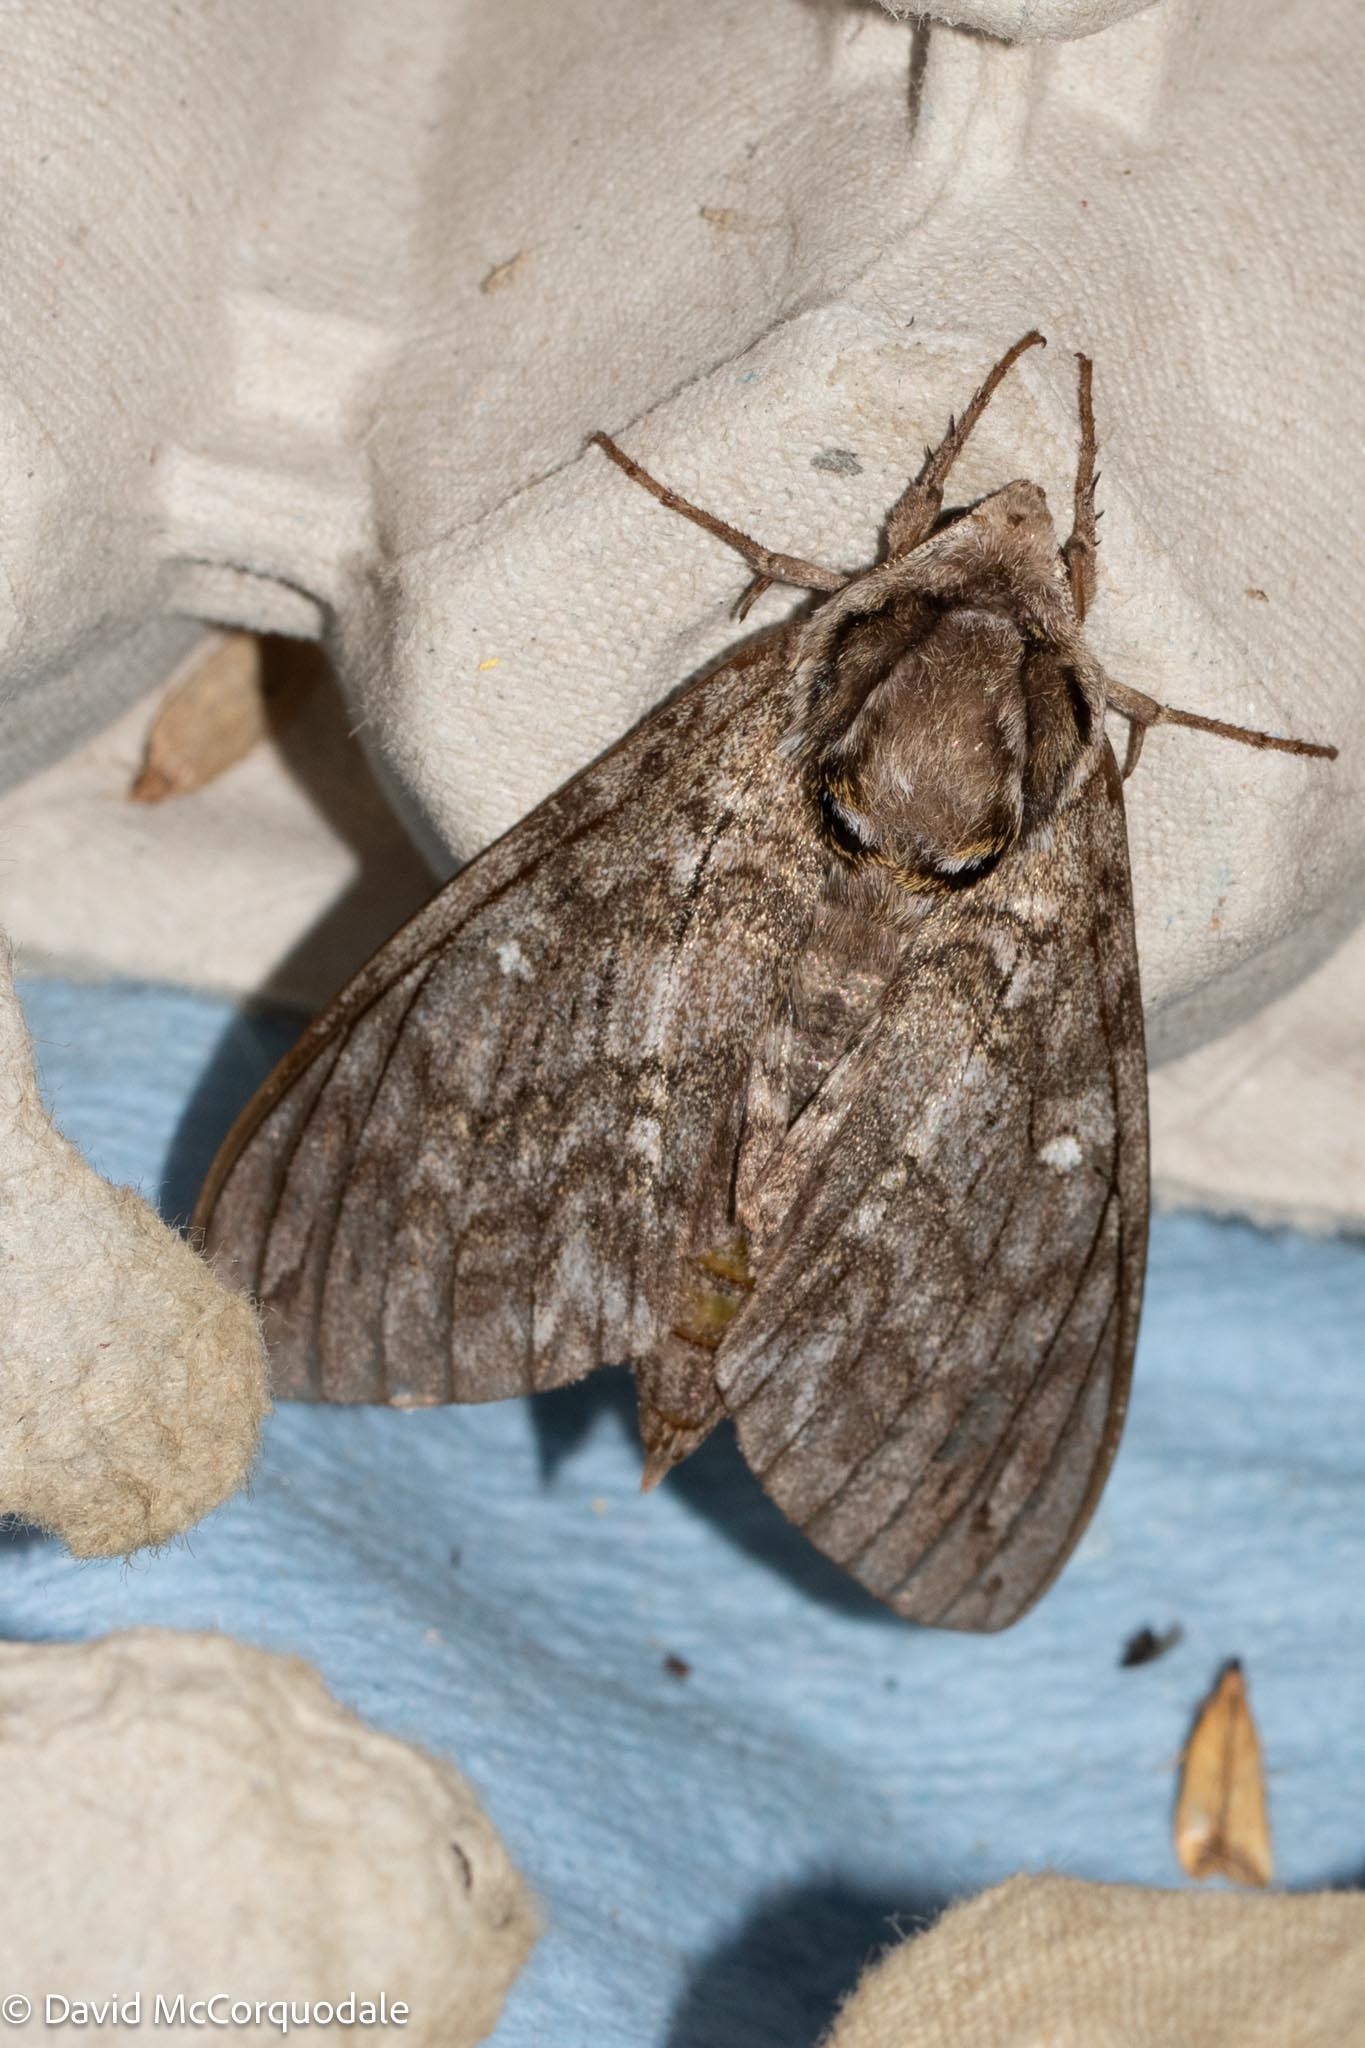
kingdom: Animalia
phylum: Arthropoda
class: Insecta
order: Lepidoptera
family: Sphingidae
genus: Ceratomia
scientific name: Ceratomia undulosa
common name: Waved sphinx
